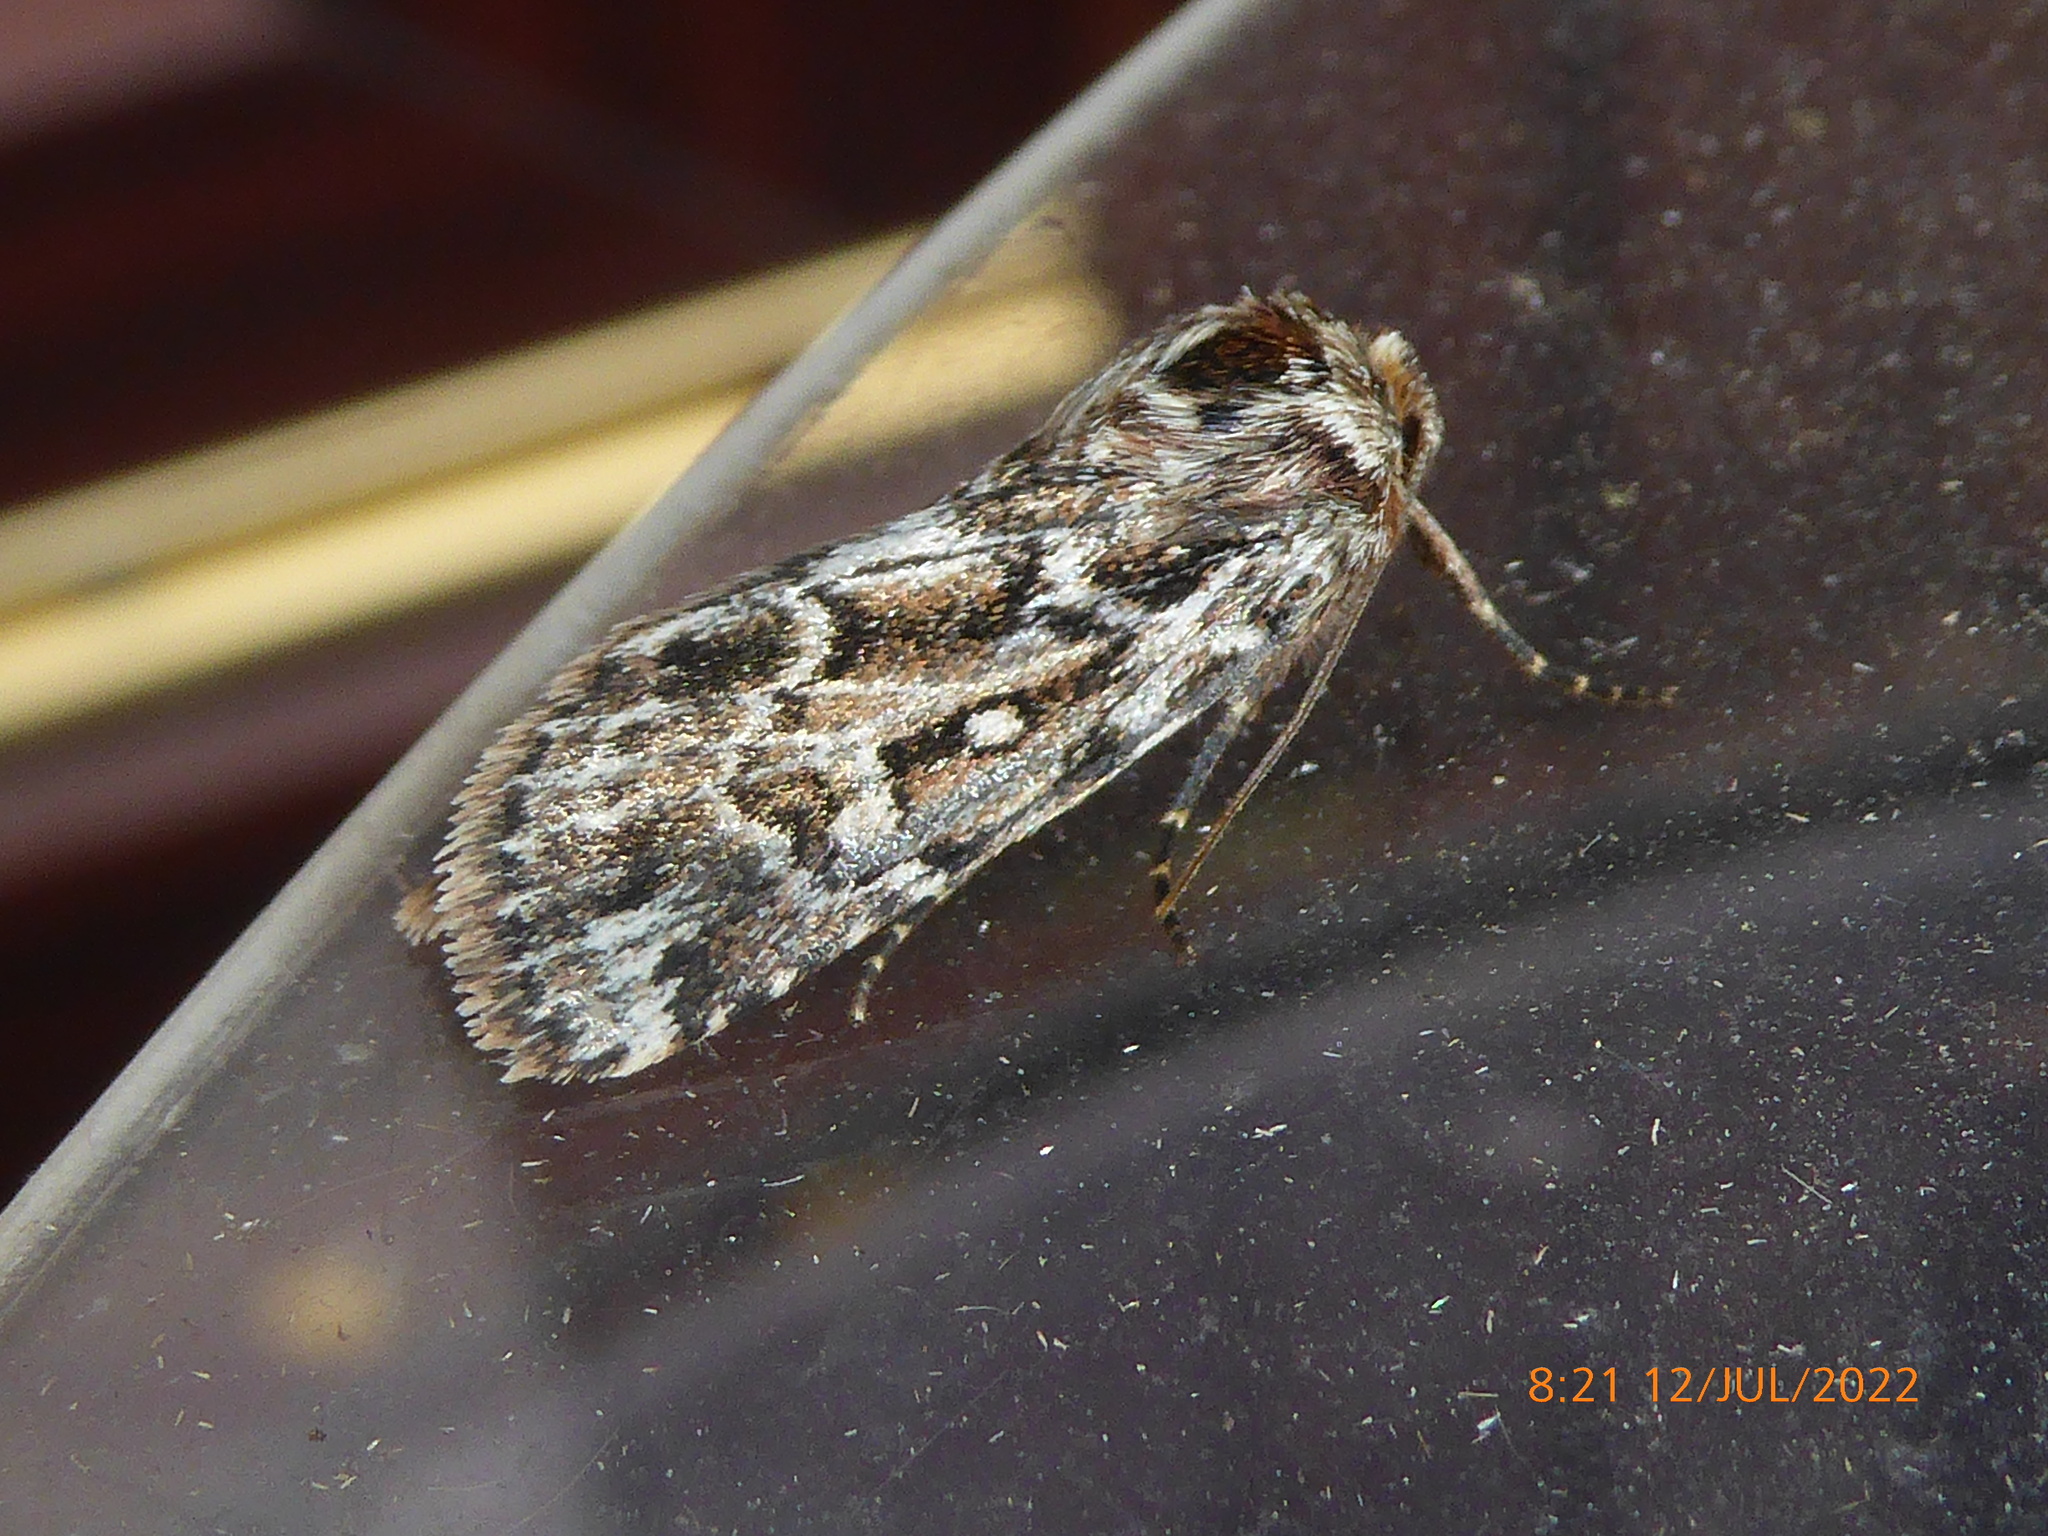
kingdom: Animalia
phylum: Arthropoda
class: Insecta
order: Lepidoptera
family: Noctuidae
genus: Lycophotia
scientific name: Lycophotia porphyrea
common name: True lover's knot
